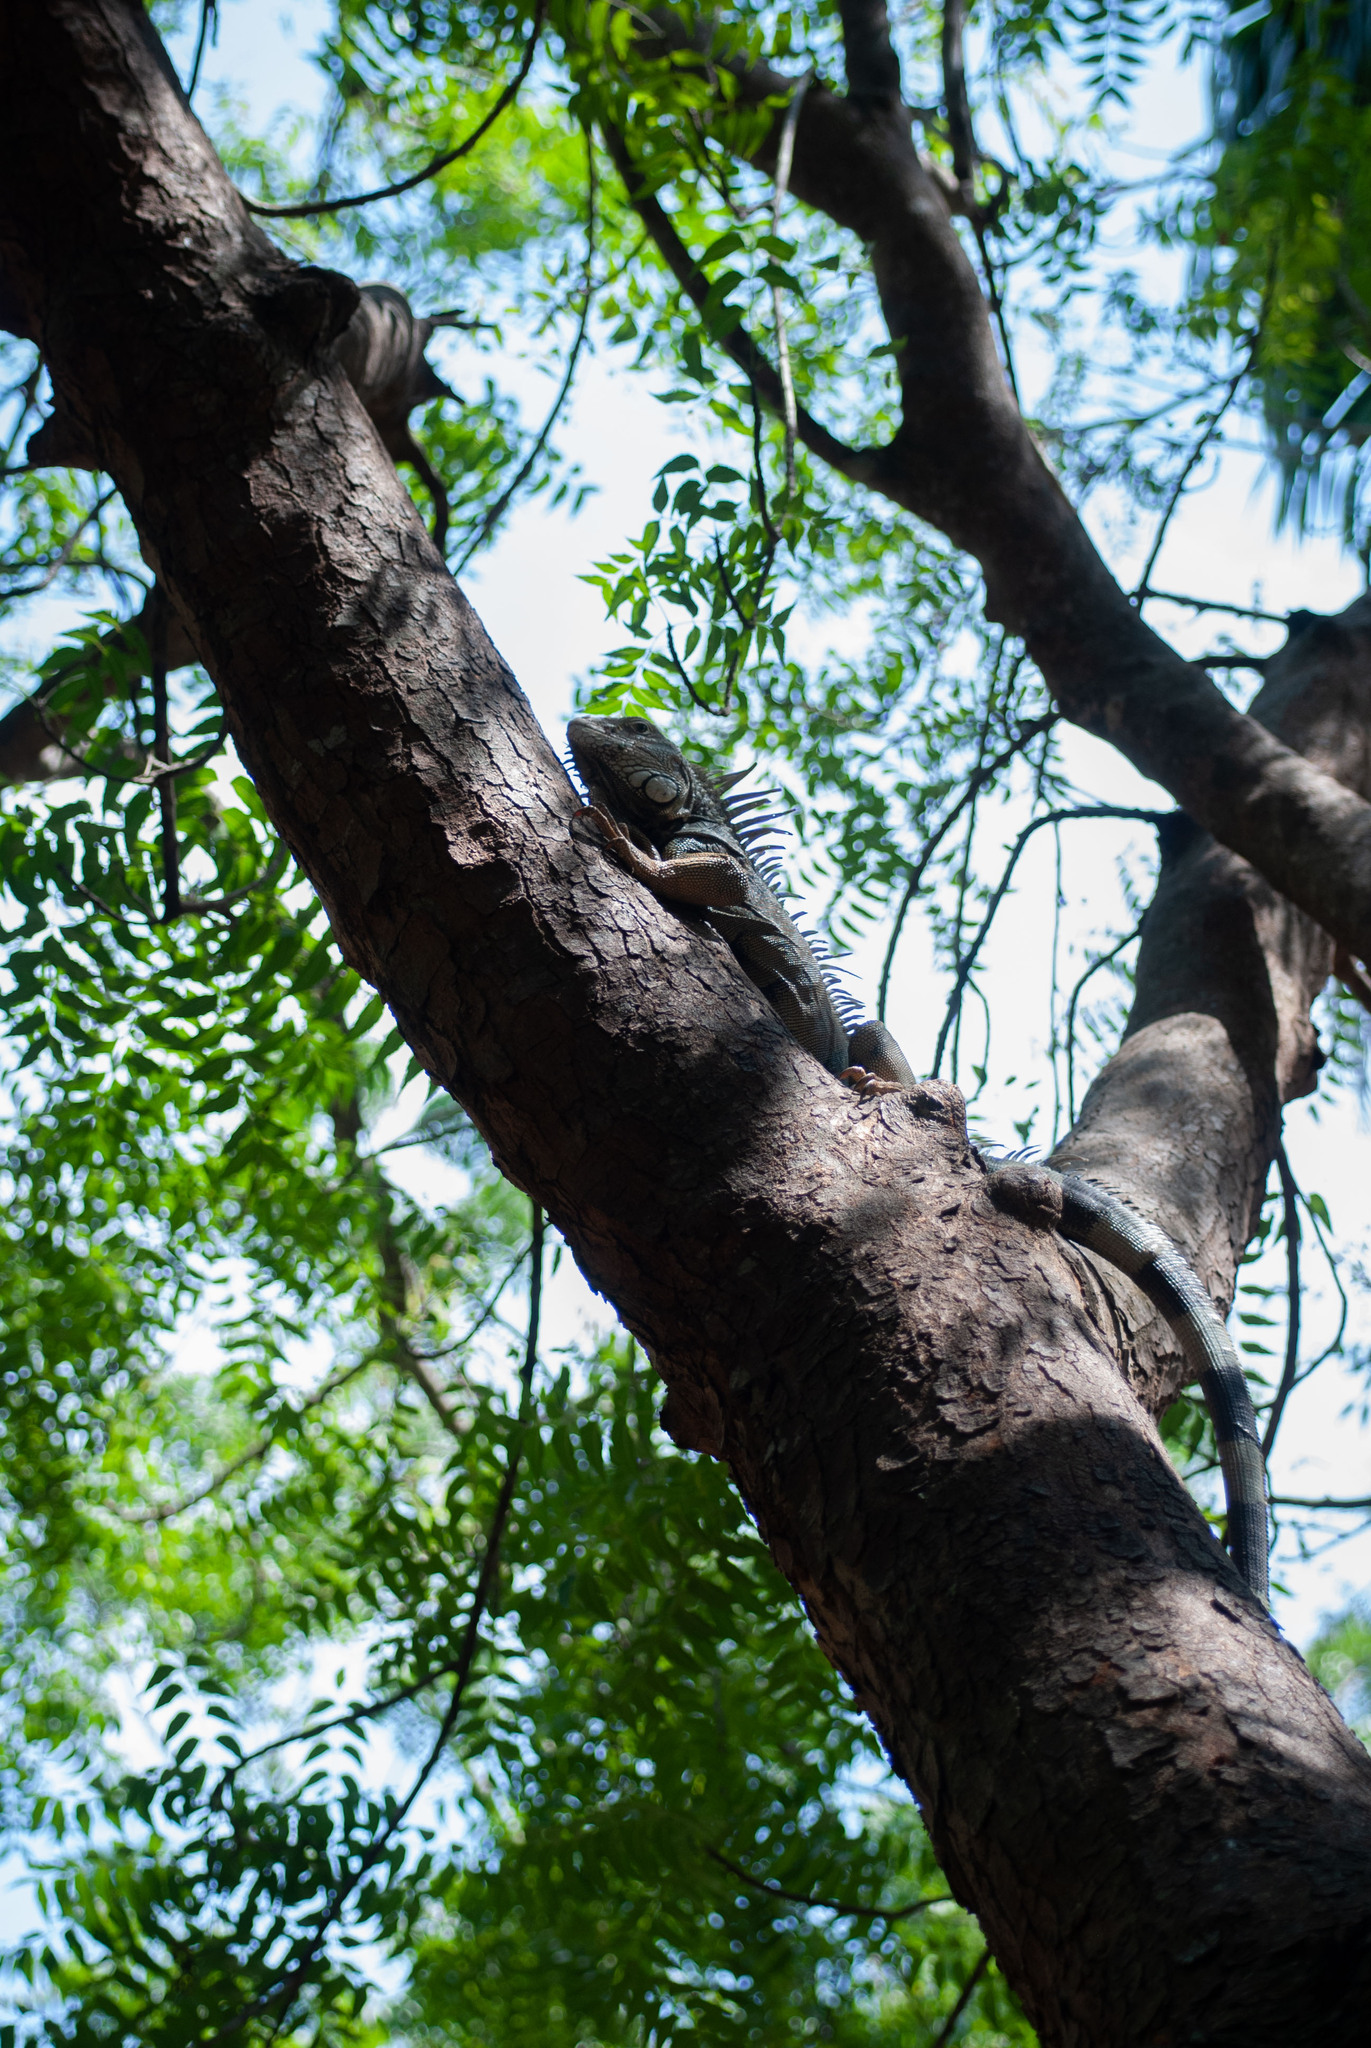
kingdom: Animalia
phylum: Chordata
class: Squamata
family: Iguanidae
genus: Iguana
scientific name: Iguana iguana
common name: Green iguana
